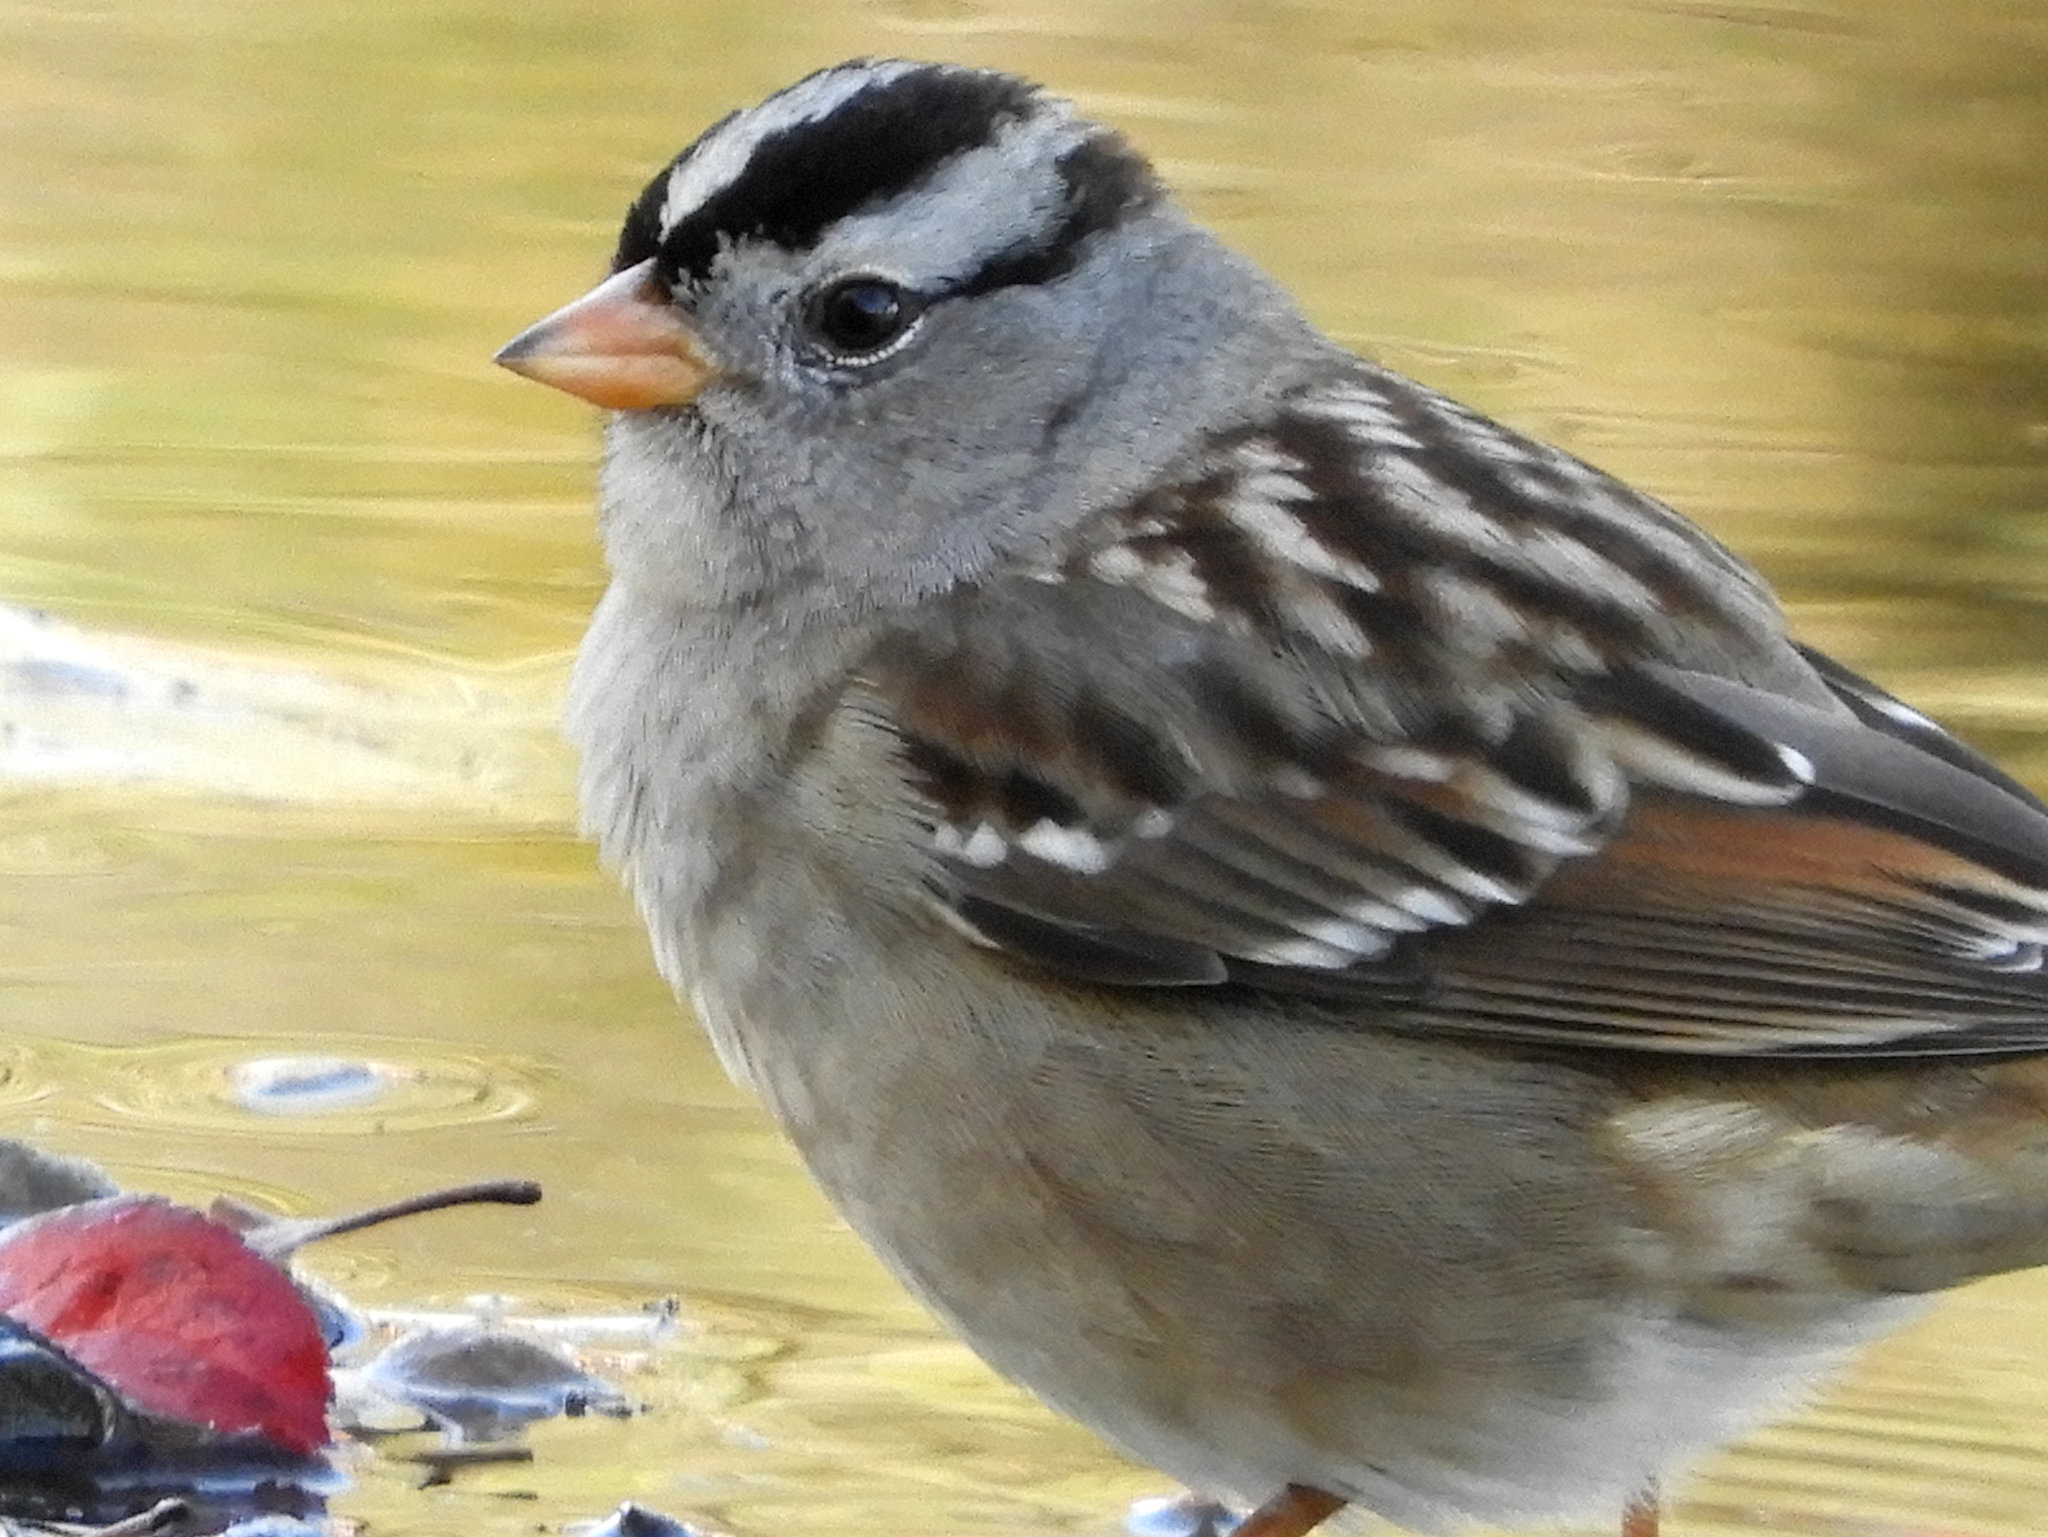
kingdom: Animalia
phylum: Chordata
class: Aves
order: Passeriformes
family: Passerellidae
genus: Zonotrichia
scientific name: Zonotrichia leucophrys
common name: White-crowned sparrow
